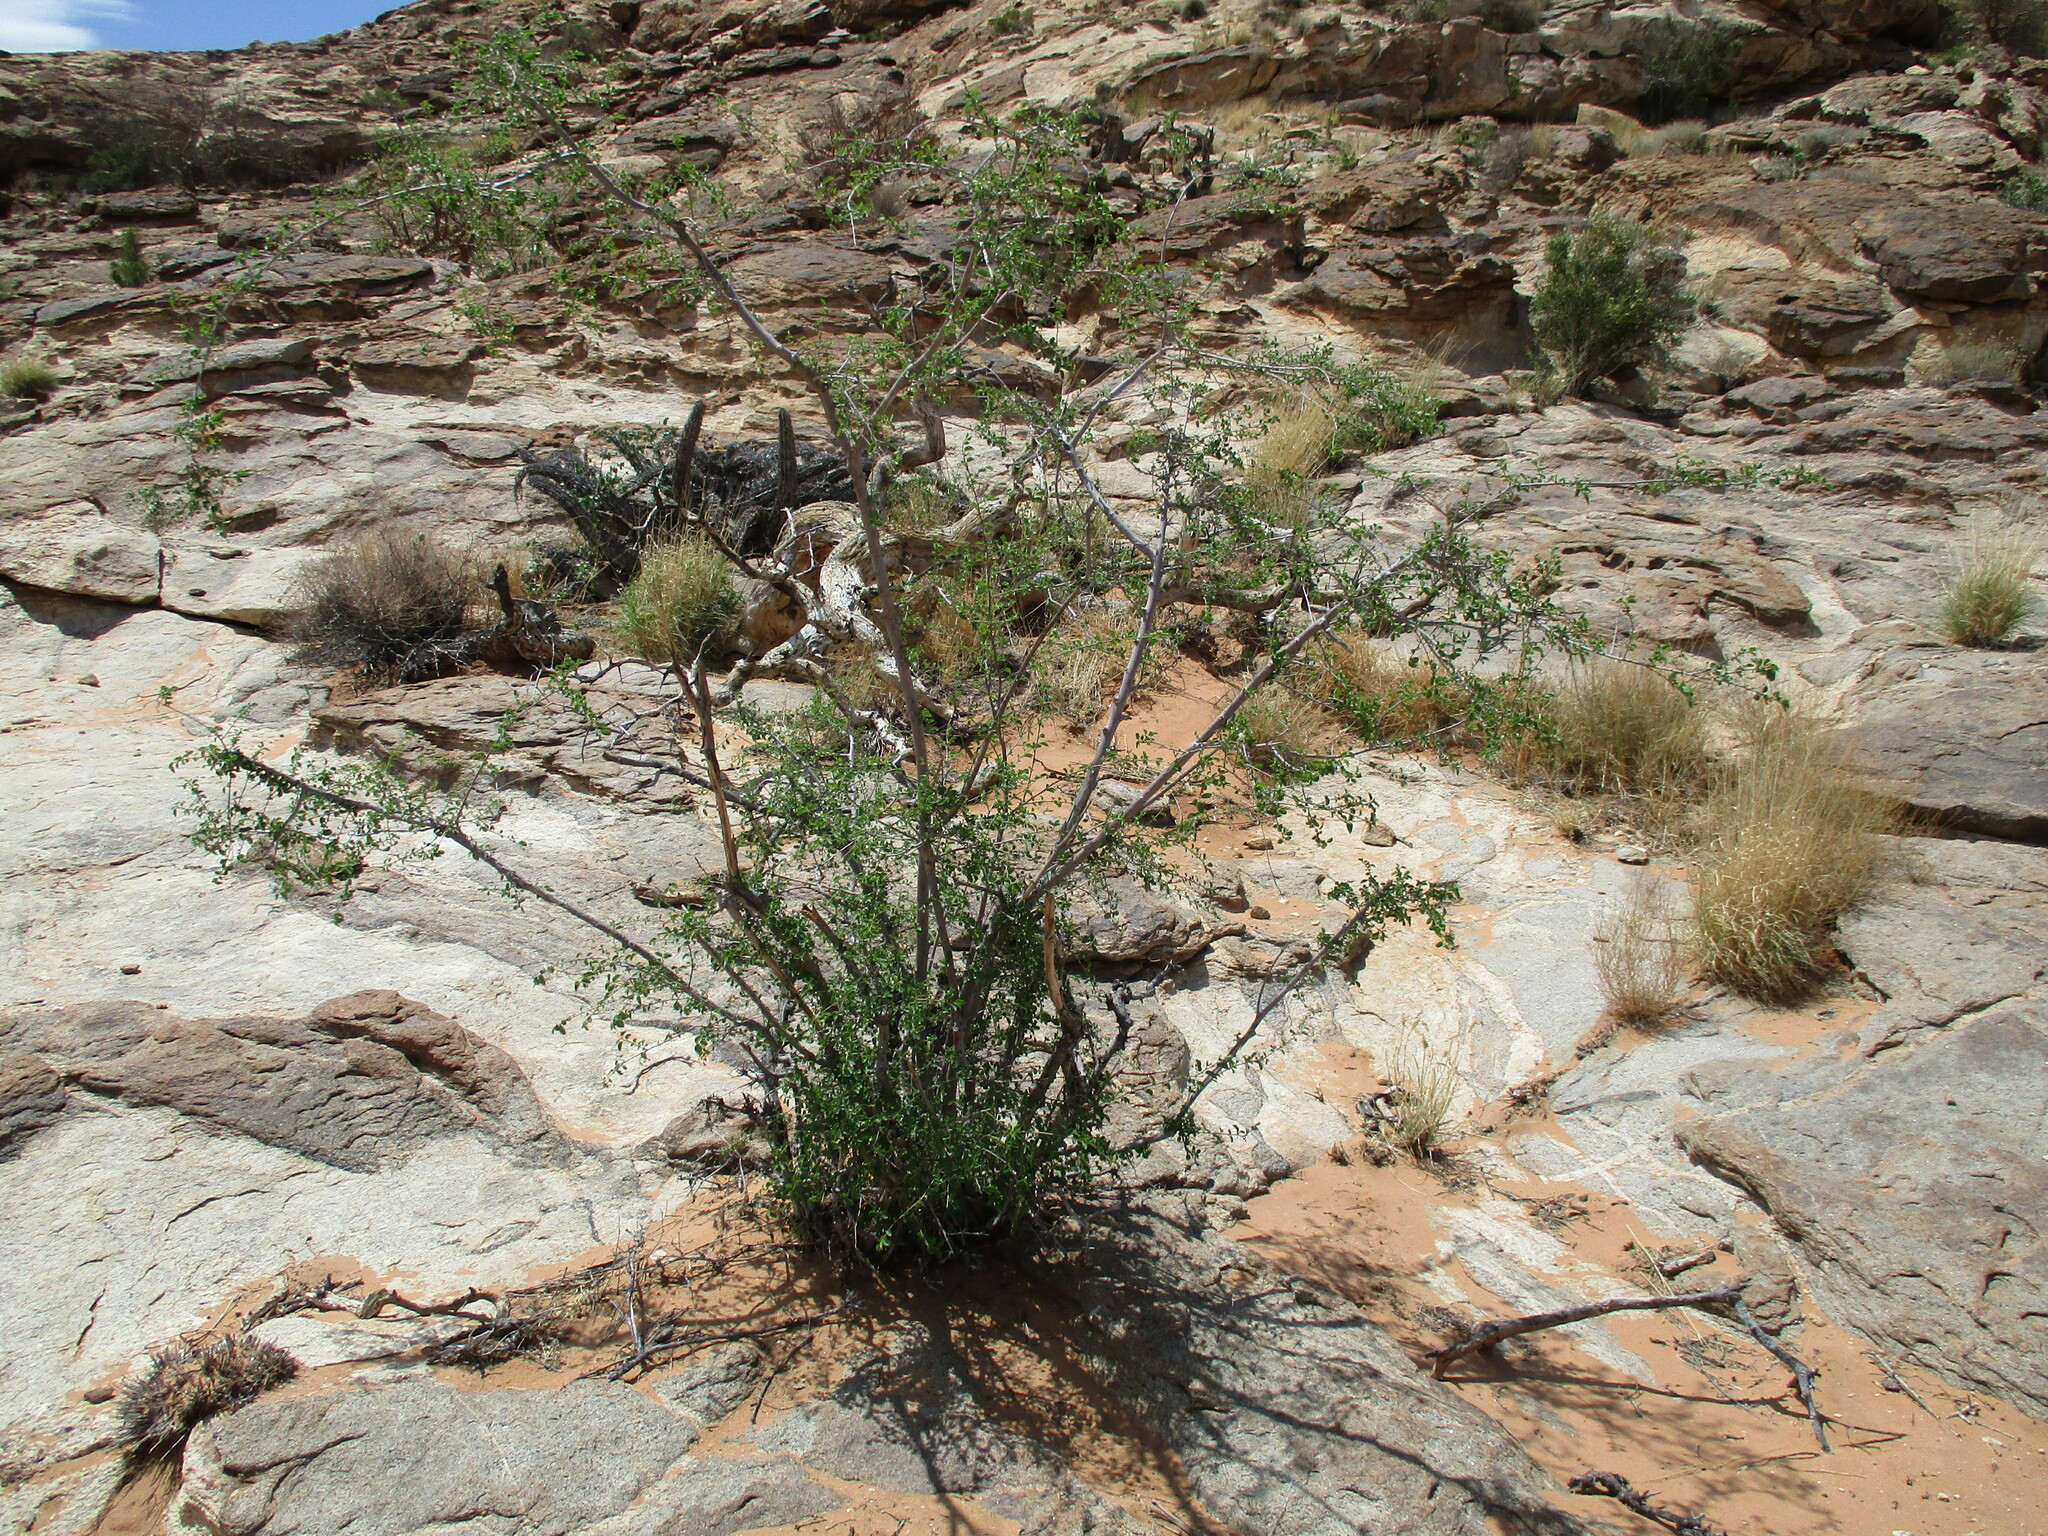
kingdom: Plantae
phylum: Tracheophyta
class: Magnoliopsida
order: Malvales
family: Malvaceae
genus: Grewia
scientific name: Grewia tenax
